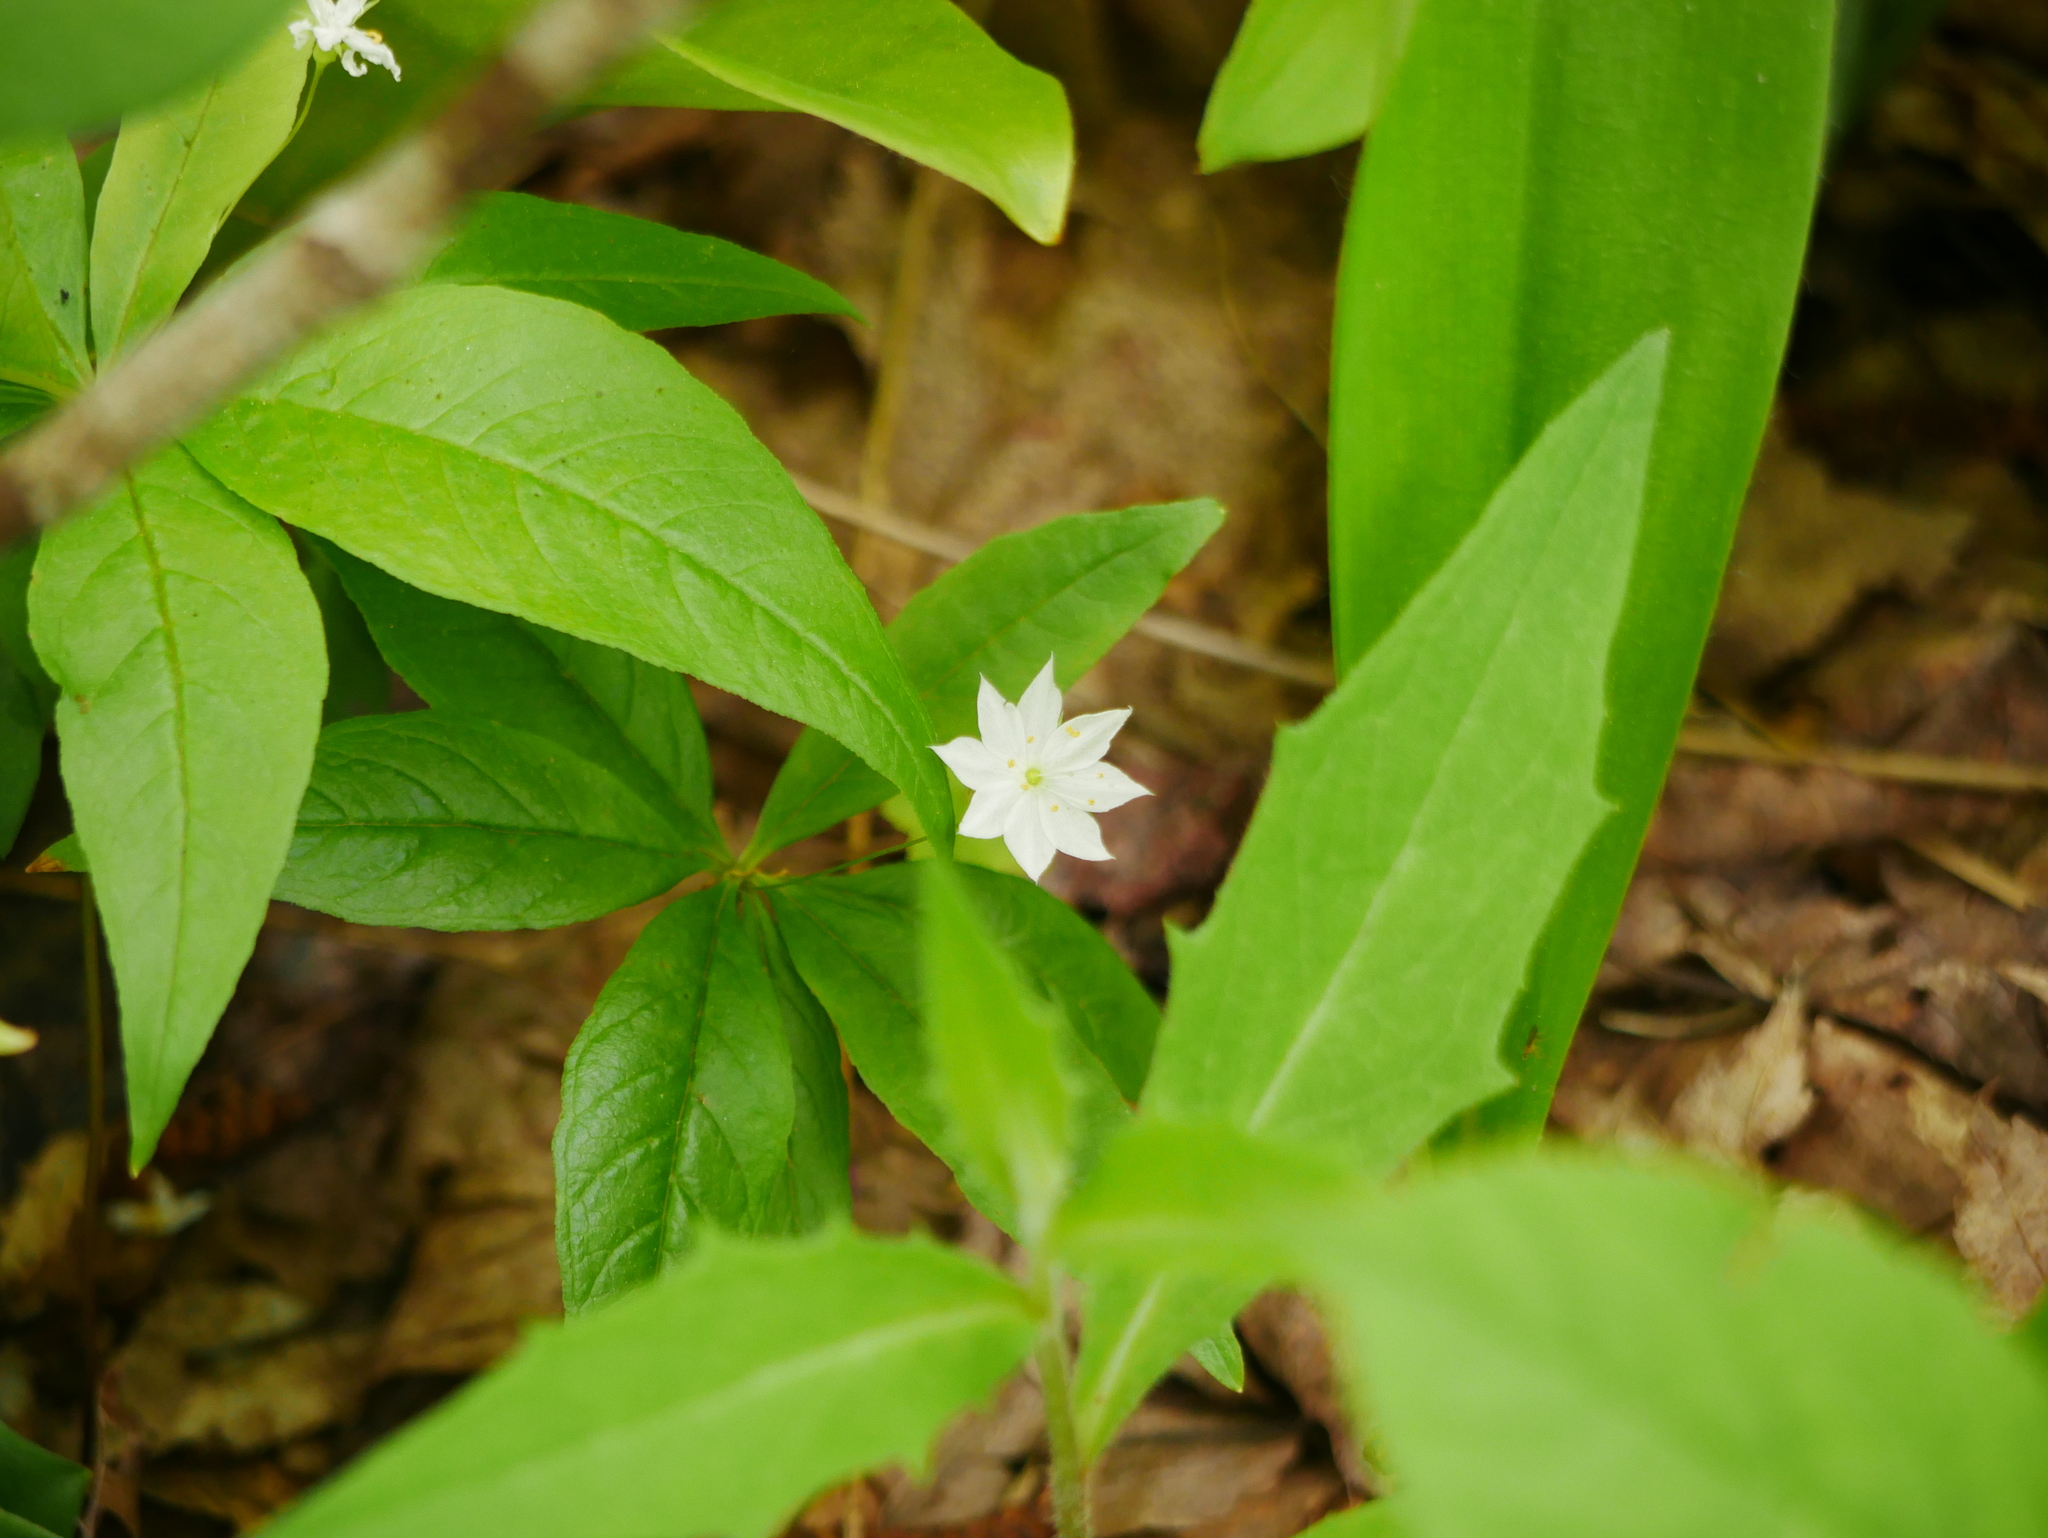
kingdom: Plantae
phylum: Tracheophyta
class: Magnoliopsida
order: Ericales
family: Primulaceae
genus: Lysimachia
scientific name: Lysimachia borealis
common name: American starflower
